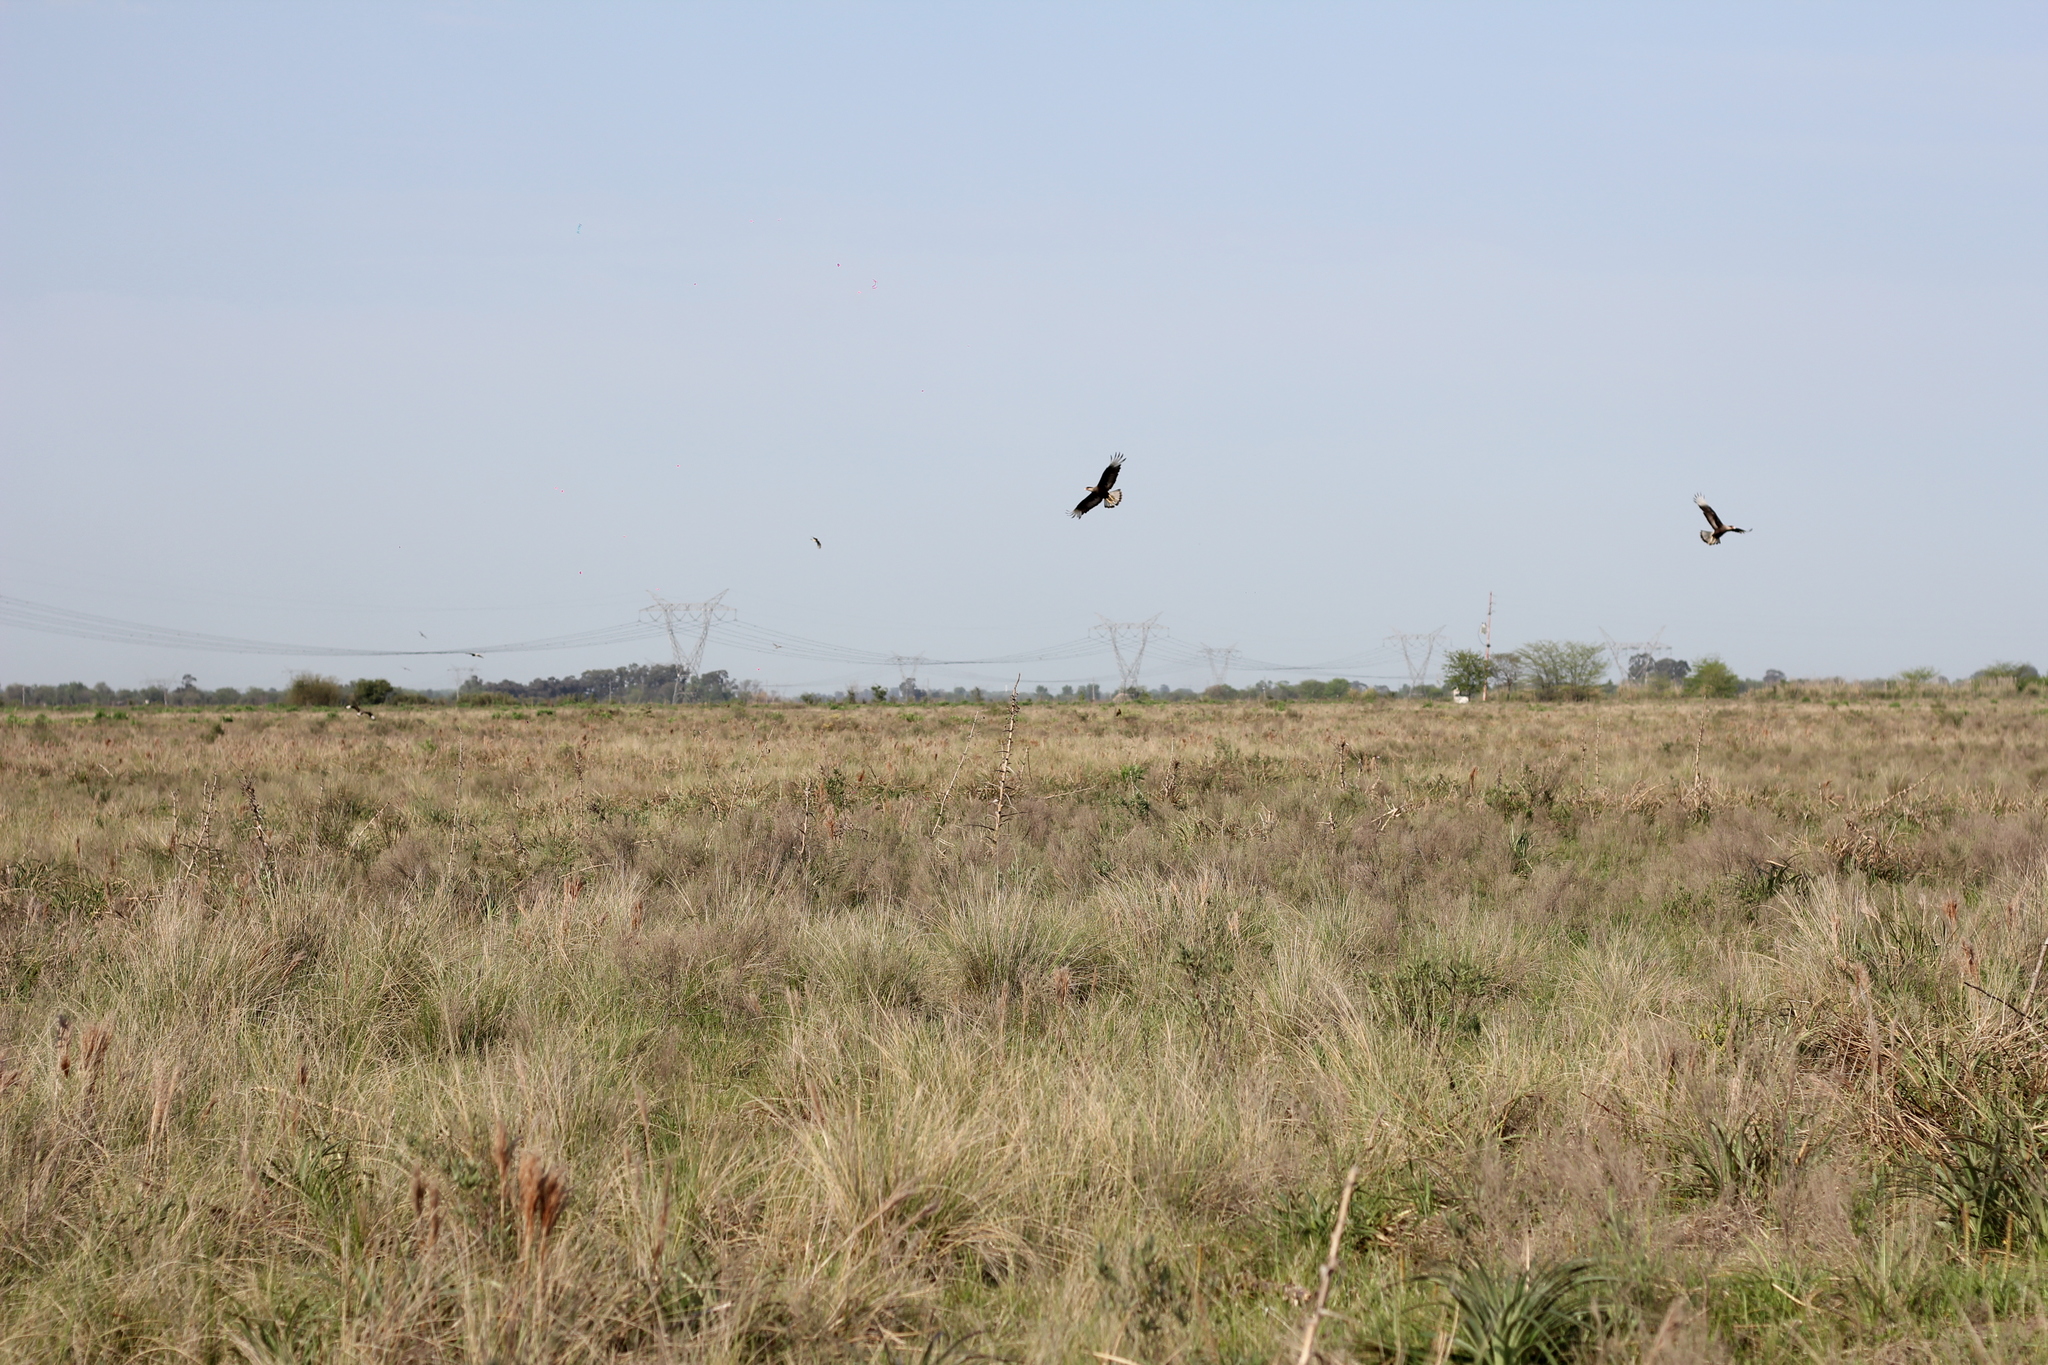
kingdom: Animalia
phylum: Chordata
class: Aves
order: Falconiformes
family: Falconidae
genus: Caracara
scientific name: Caracara plancus
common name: Southern caracara
